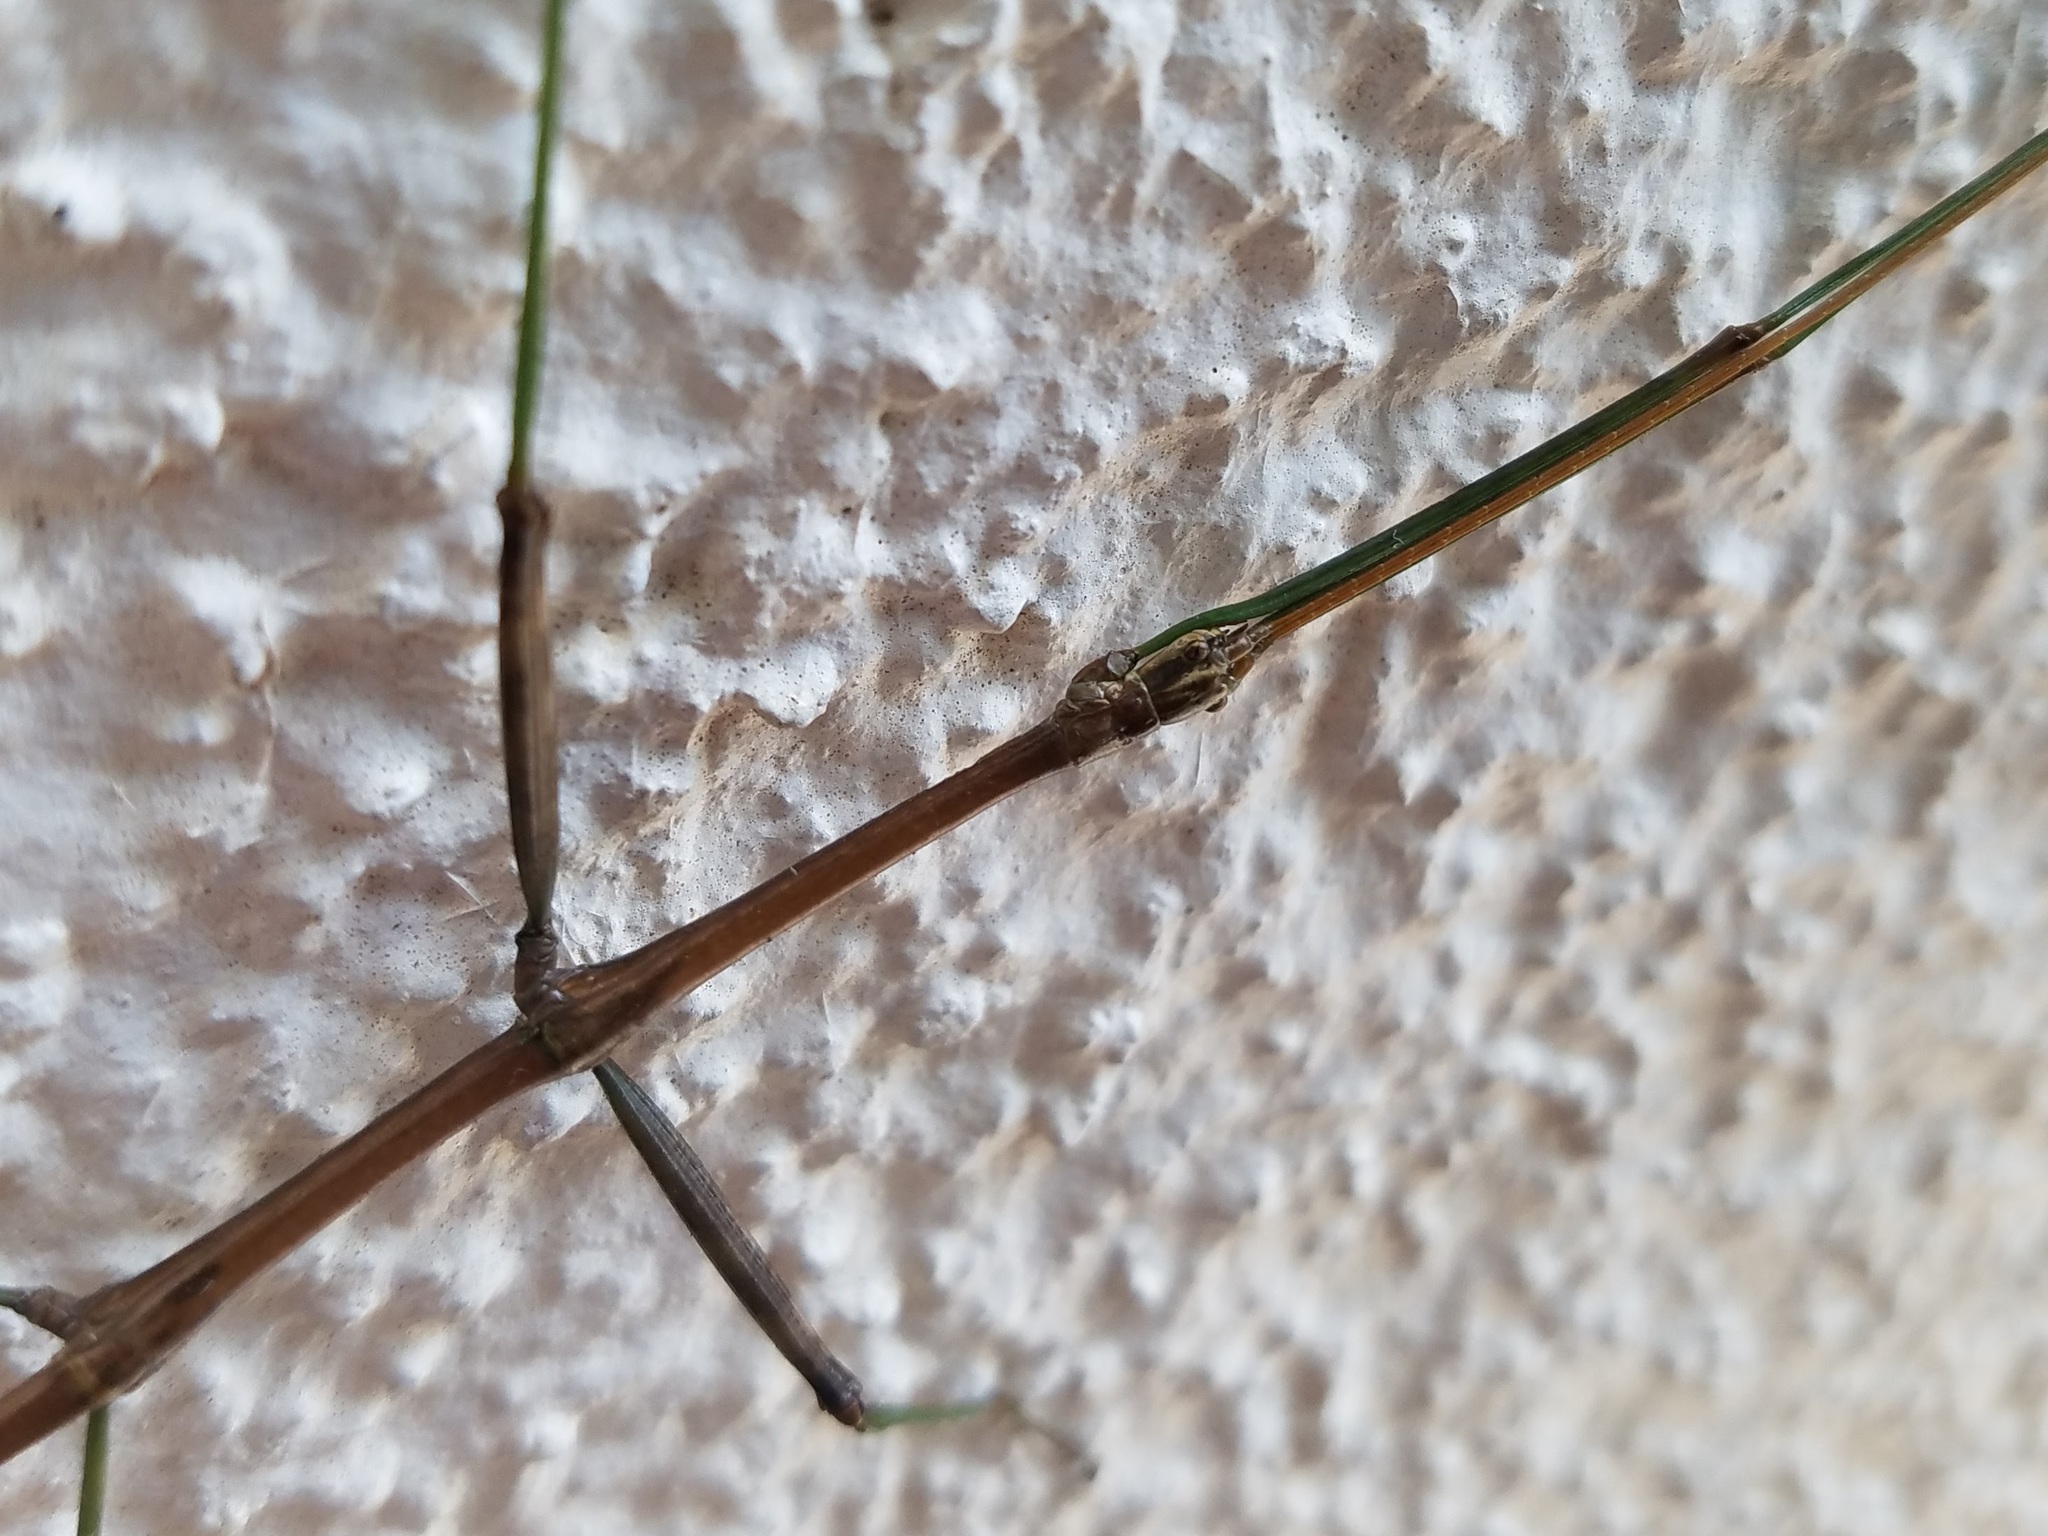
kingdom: Animalia
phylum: Arthropoda
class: Insecta
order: Phasmida
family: Diapheromeridae
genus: Diapheromera
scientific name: Diapheromera femorata
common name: Common american walkingstick
